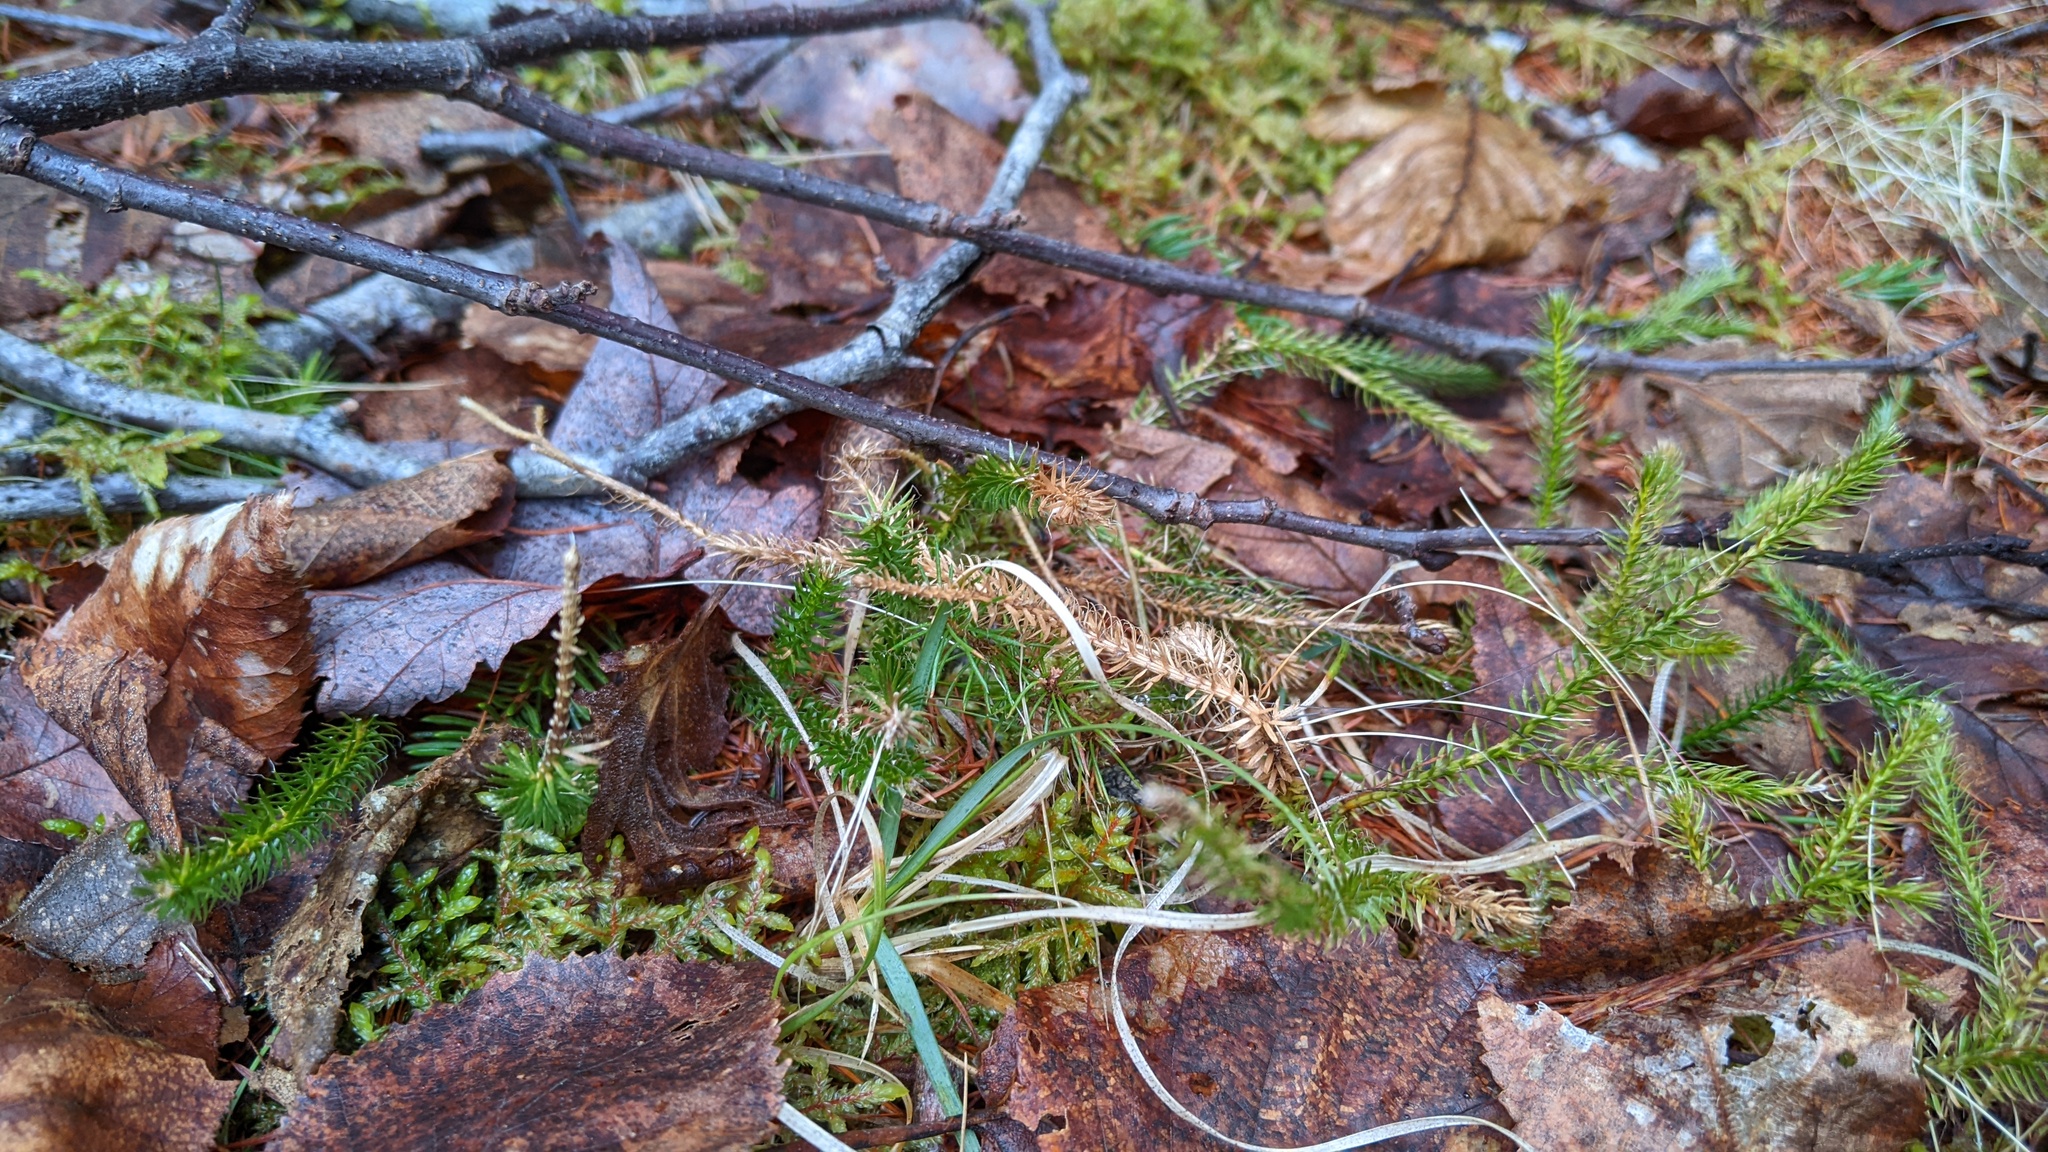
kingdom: Plantae
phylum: Tracheophyta
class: Lycopodiopsida
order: Lycopodiales
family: Lycopodiaceae
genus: Lycopodium
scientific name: Lycopodium clavatum
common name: Stag's-horn clubmoss
